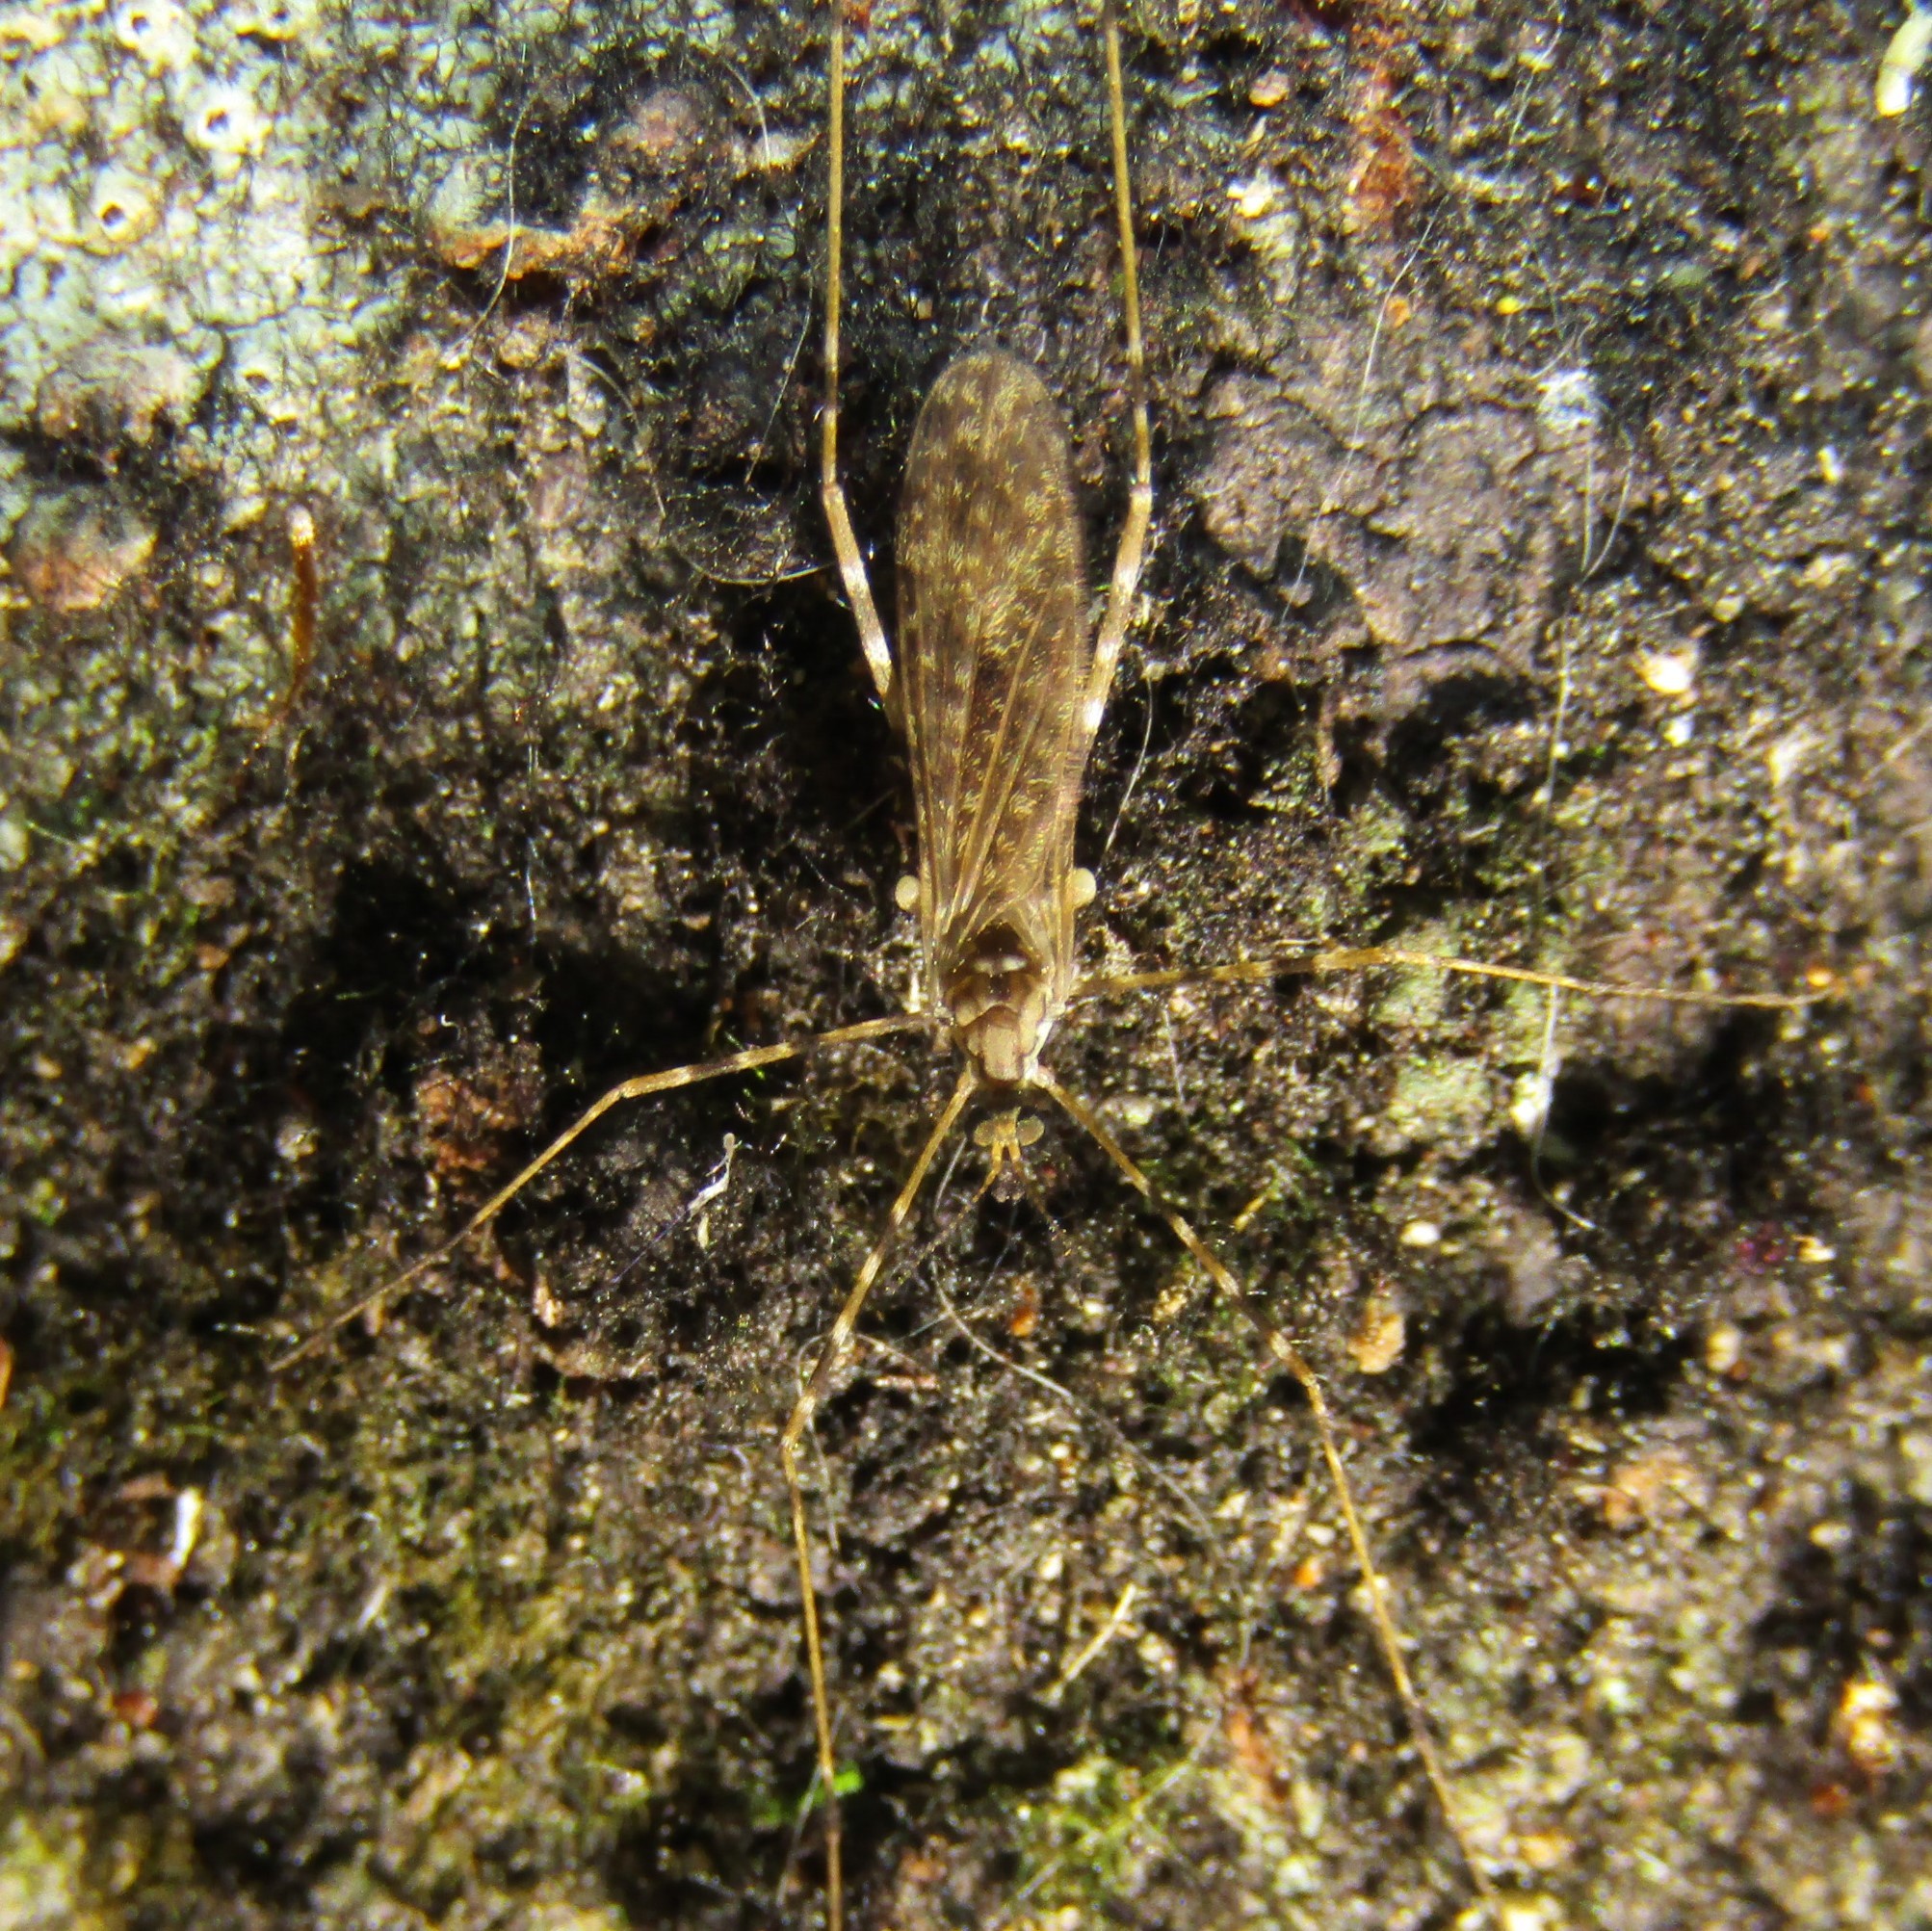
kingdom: Animalia
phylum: Arthropoda
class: Insecta
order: Diptera
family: Limoniidae
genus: Amphineurus
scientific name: Amphineurus hudsoni
